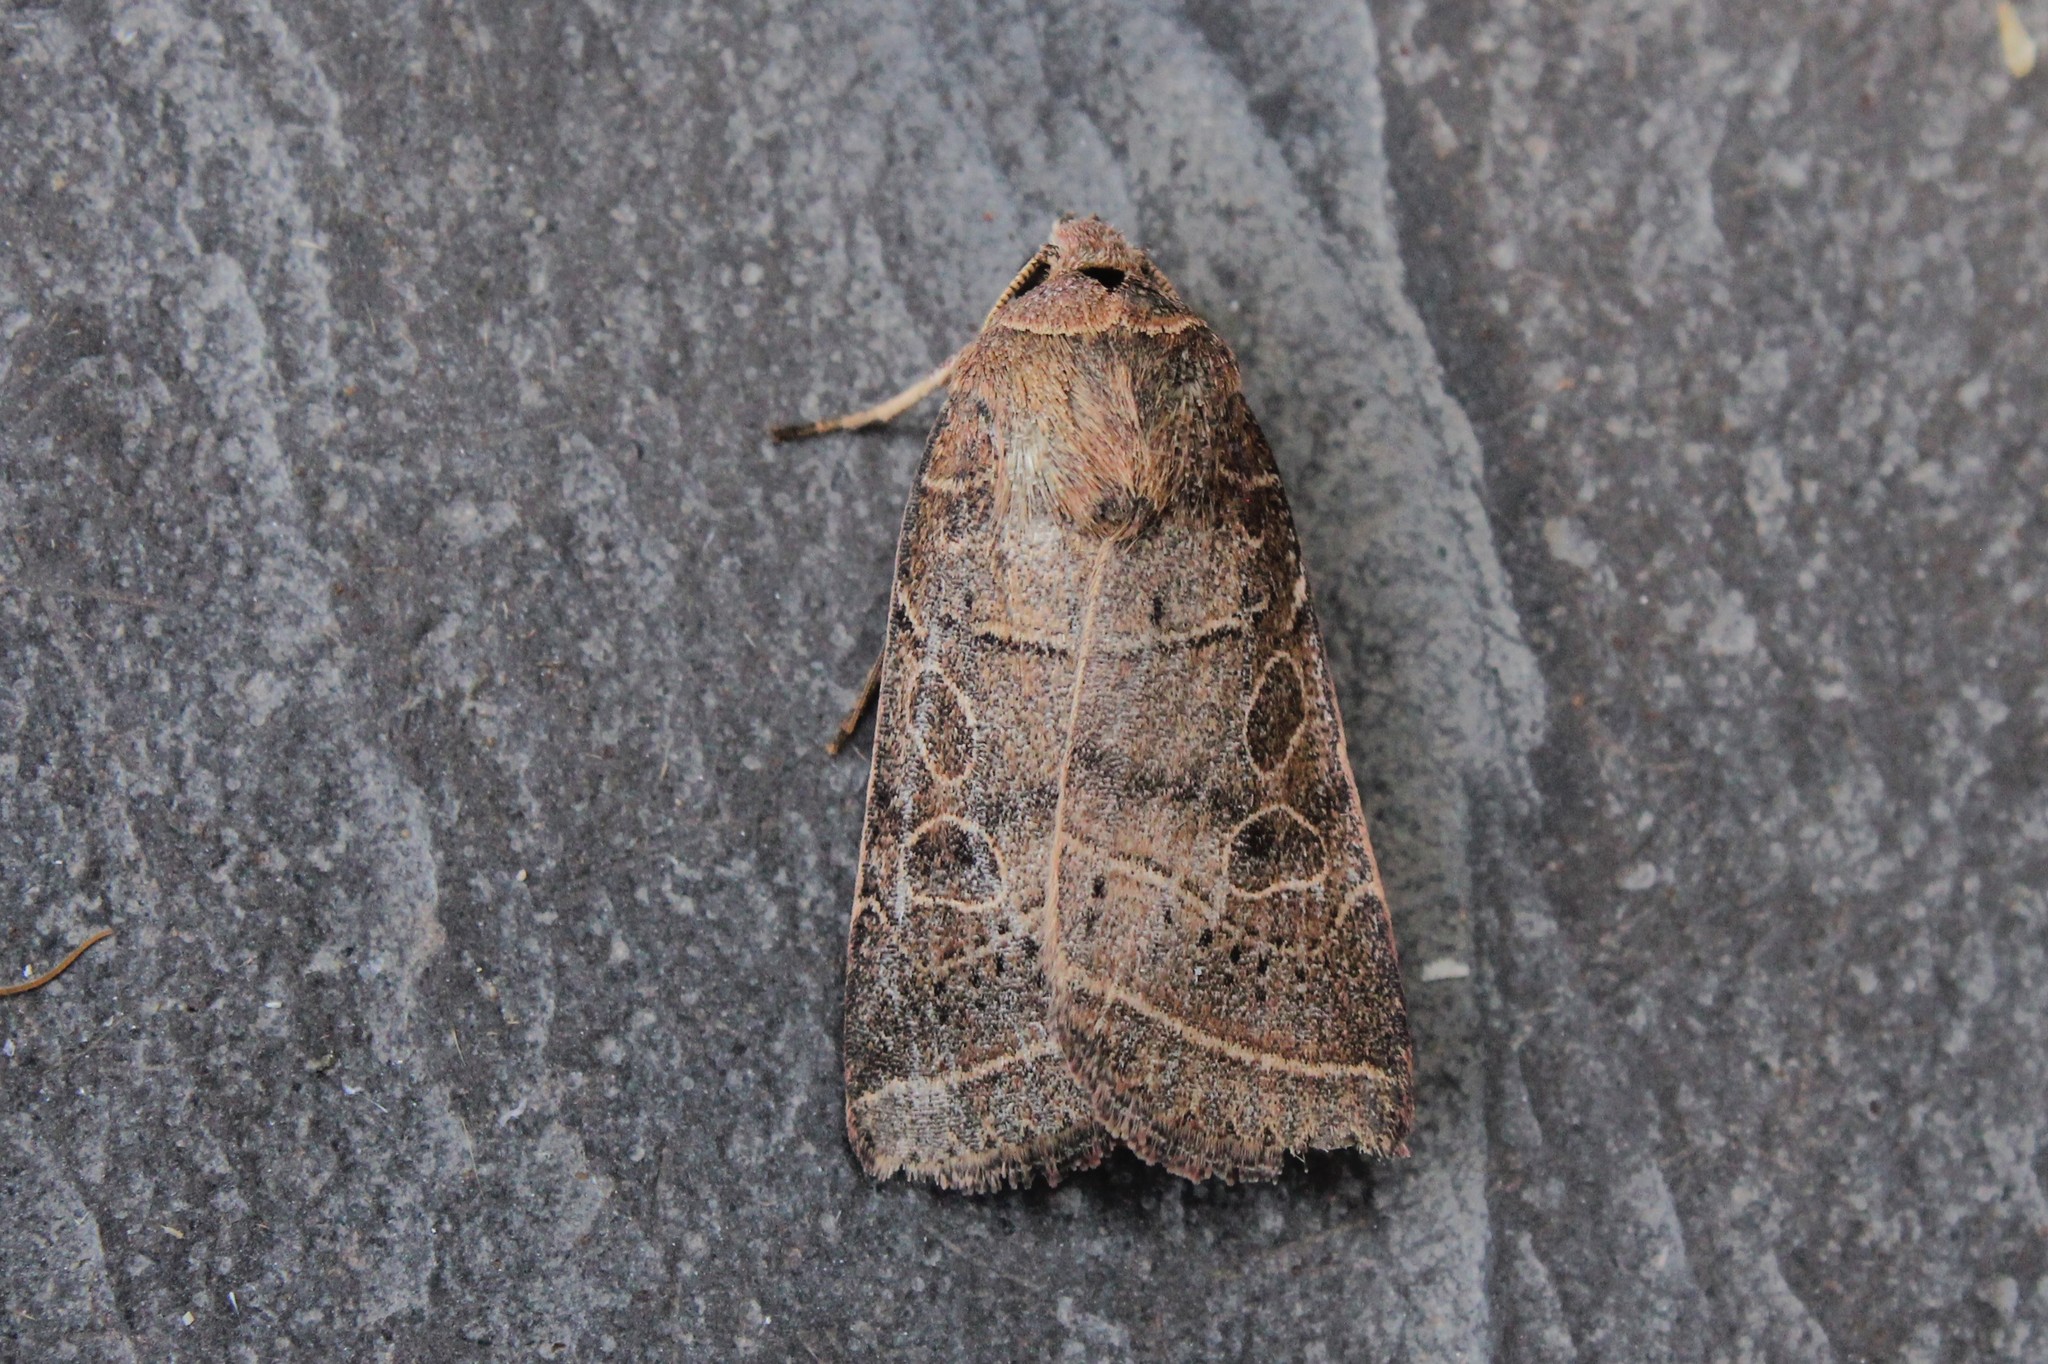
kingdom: Animalia
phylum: Arthropoda
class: Insecta
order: Lepidoptera
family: Noctuidae
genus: Orthodes
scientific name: Orthodes majuscula
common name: Rustic quaker
